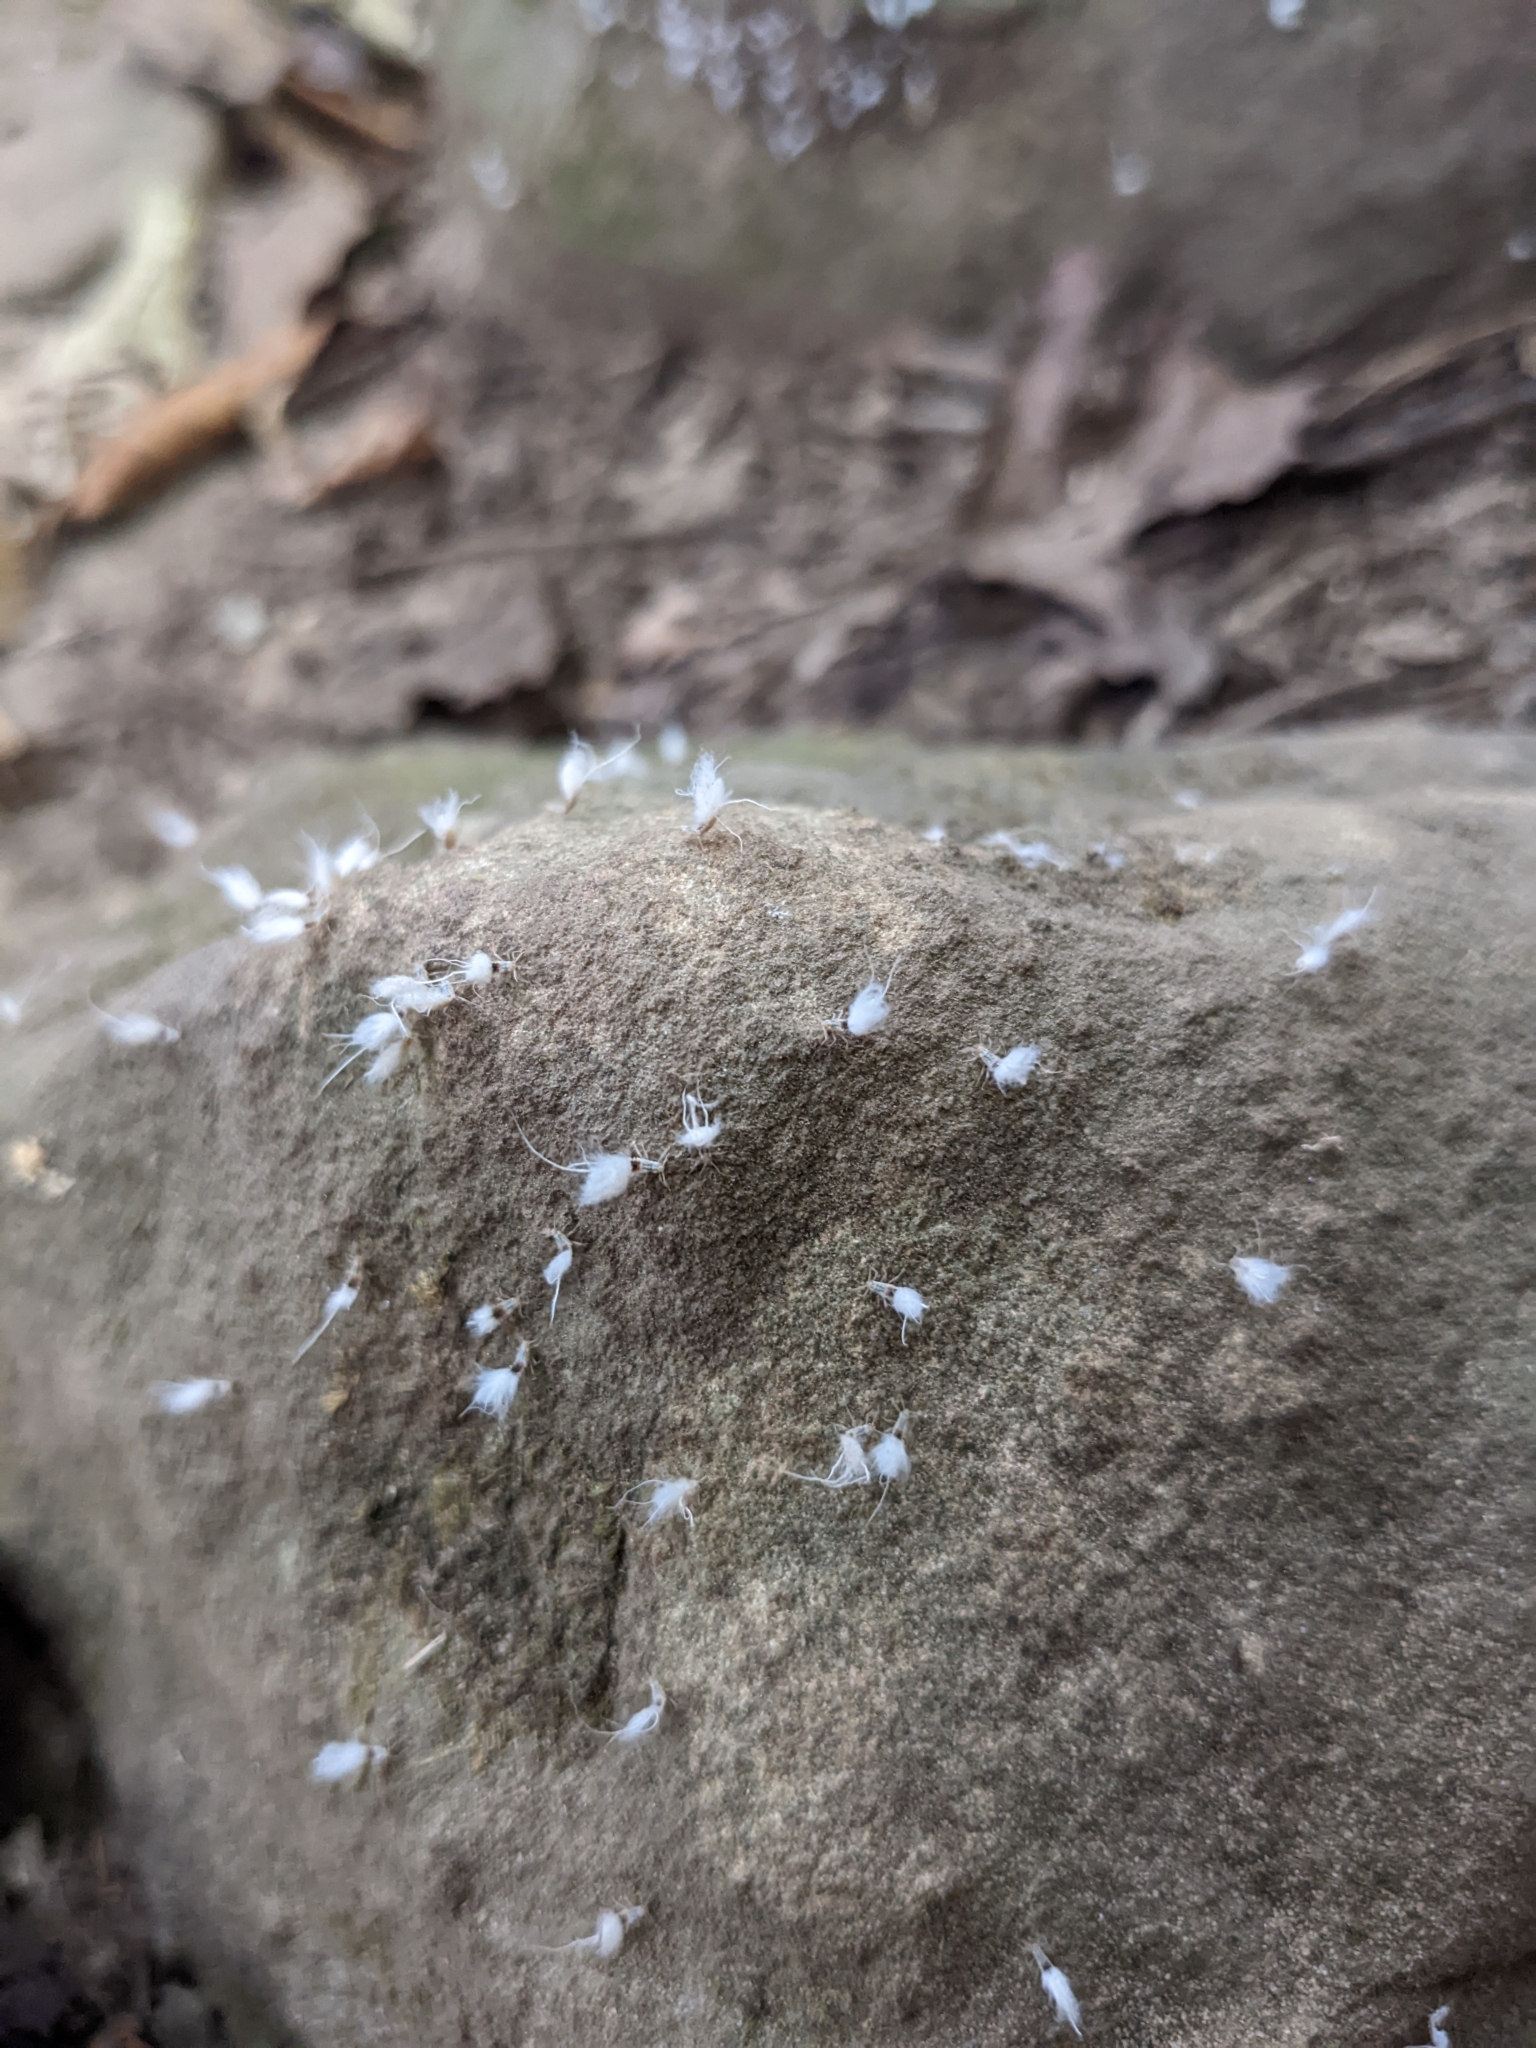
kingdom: Animalia
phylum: Arthropoda
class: Insecta
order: Hemiptera
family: Aphididae
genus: Grylloprociphilus
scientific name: Grylloprociphilus imbricator
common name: Beech blight aphid
